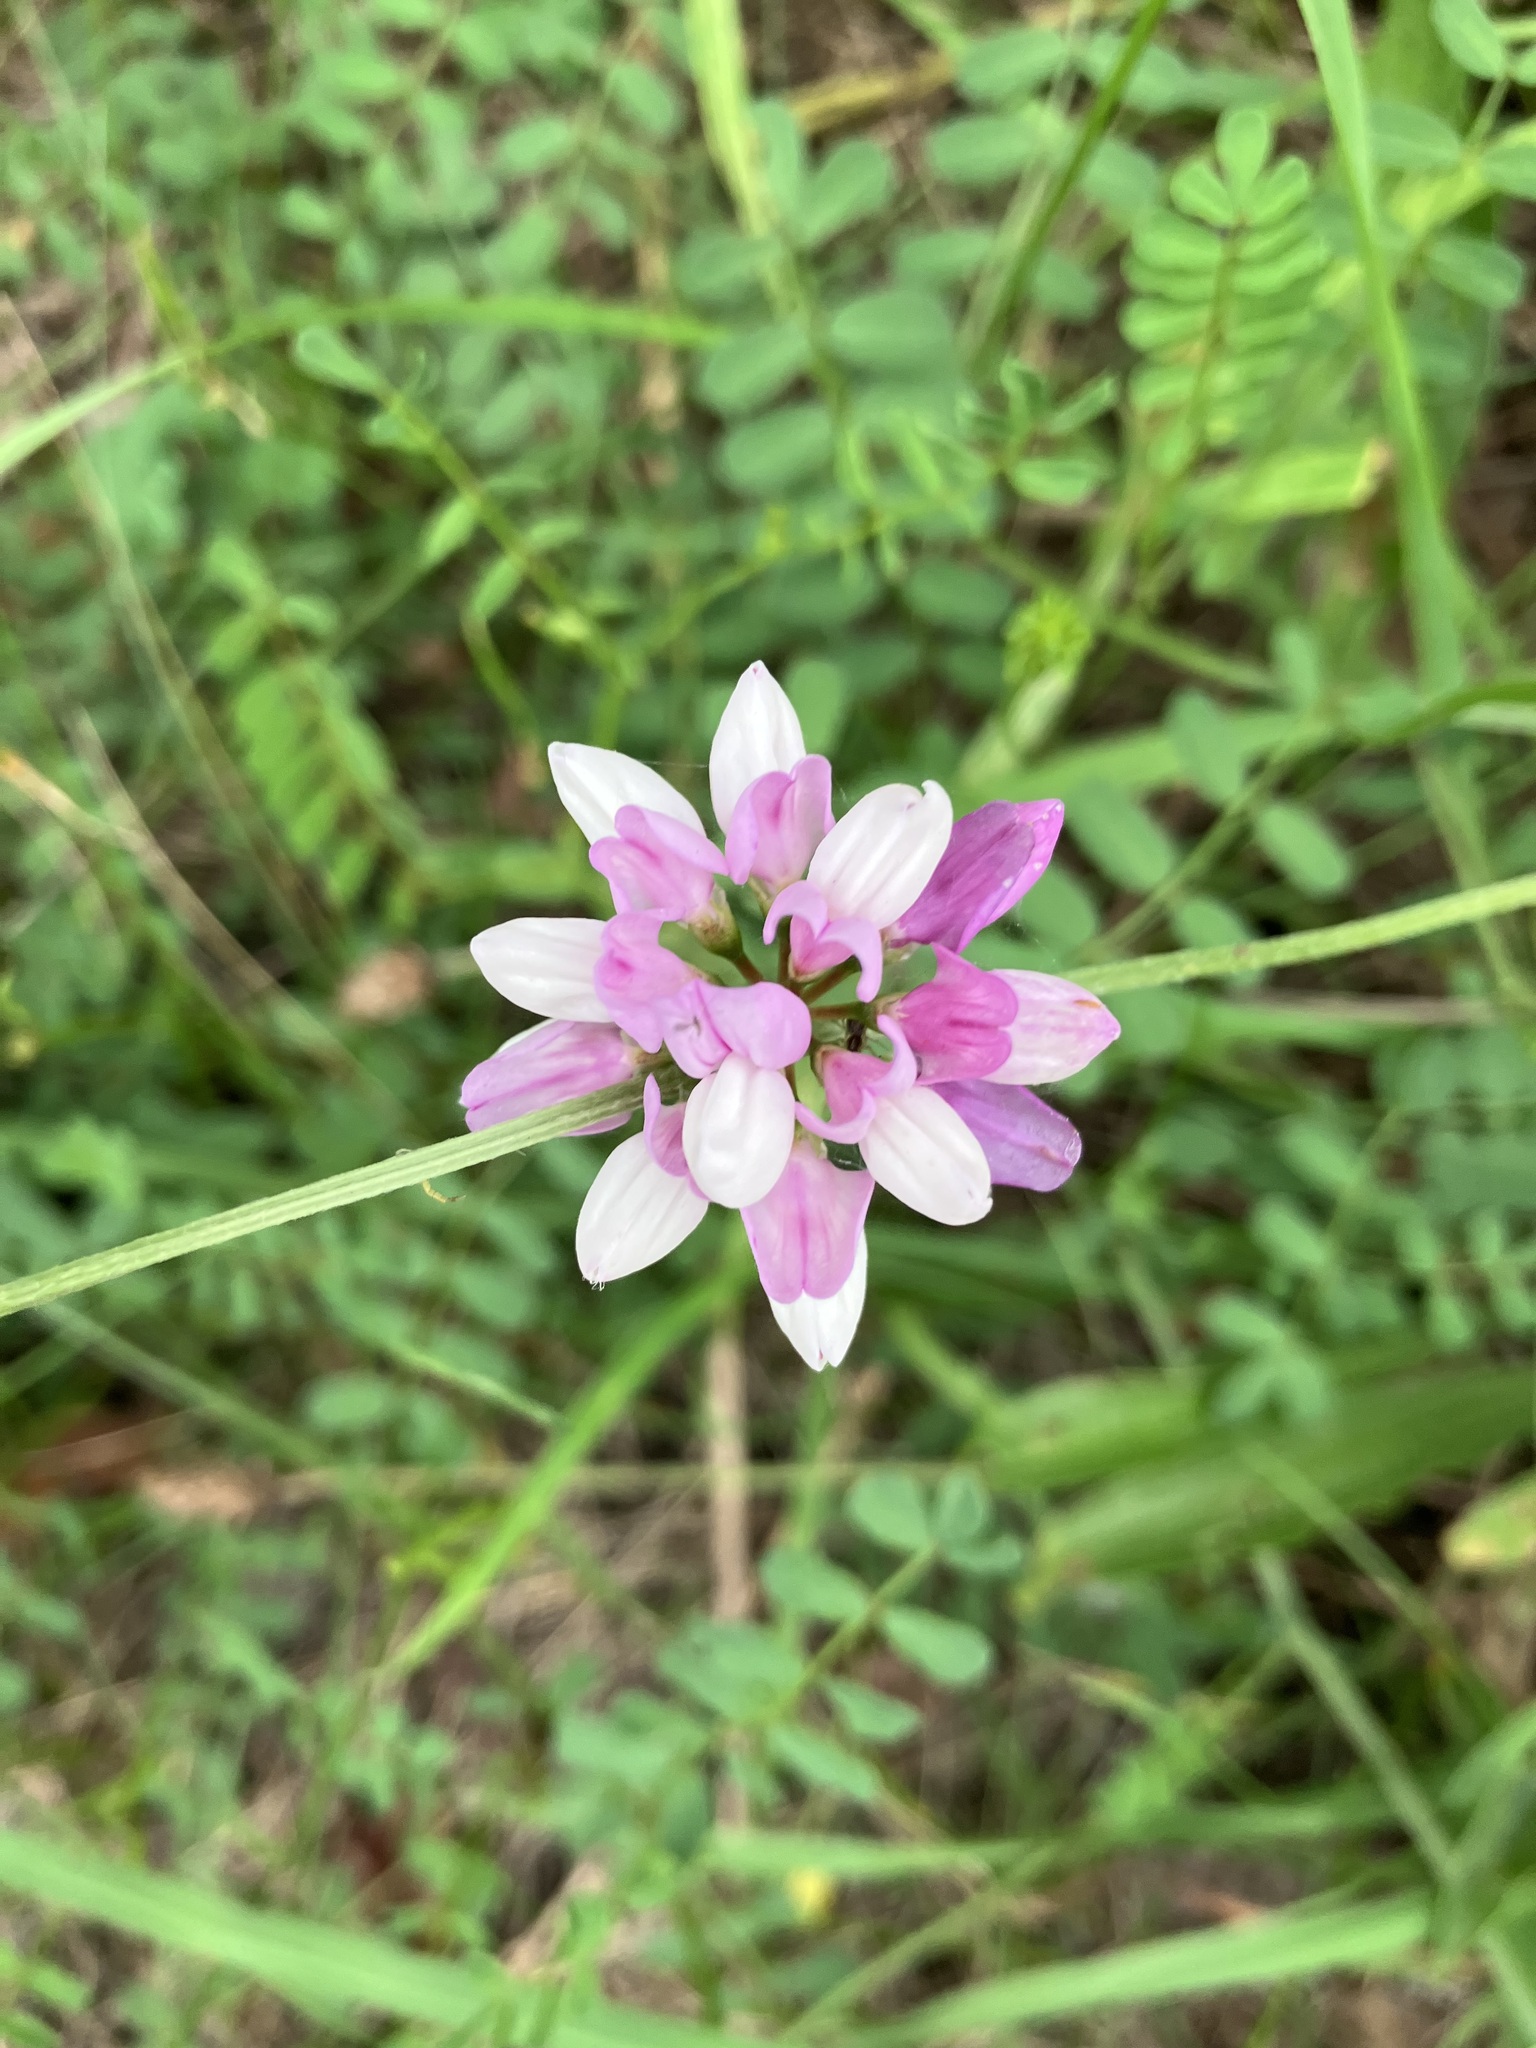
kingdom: Plantae
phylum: Tracheophyta
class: Magnoliopsida
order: Fabales
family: Fabaceae
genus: Coronilla
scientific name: Coronilla varia
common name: Crownvetch
